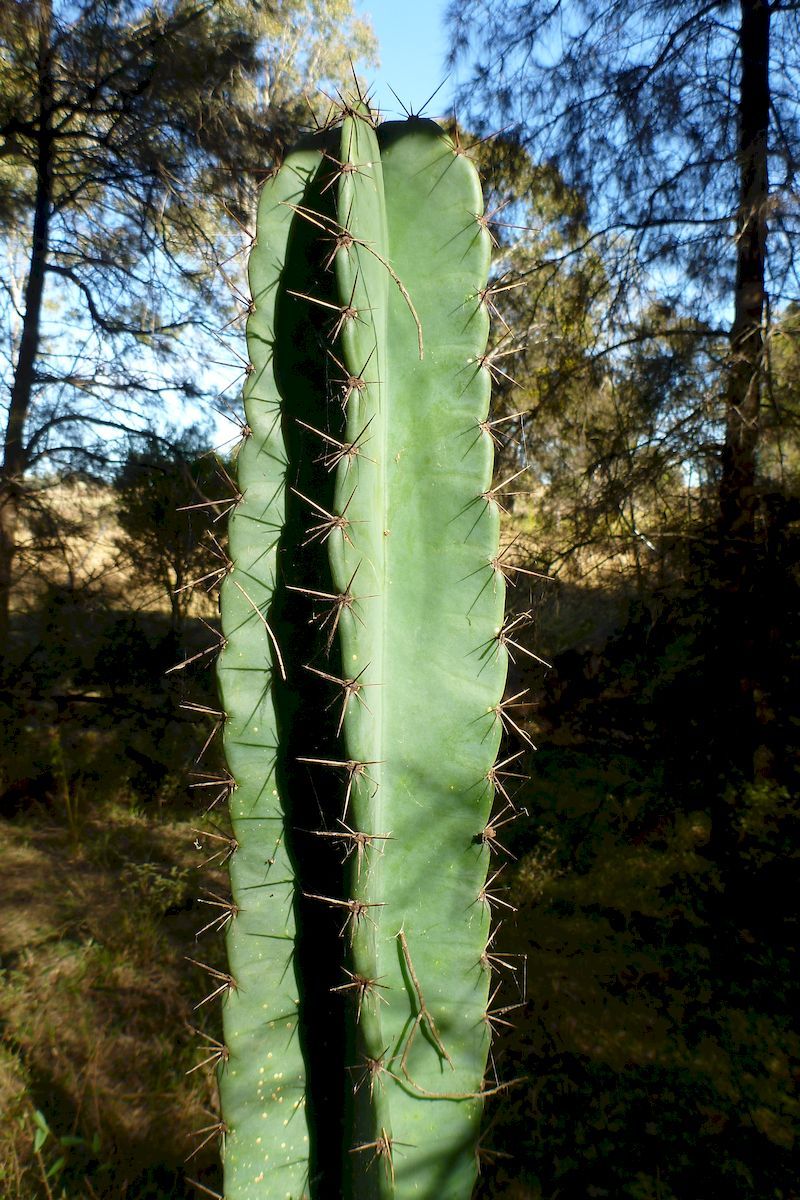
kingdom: Plantae
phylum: Tracheophyta
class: Magnoliopsida
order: Caryophyllales
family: Cactaceae
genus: Cereus
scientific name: Cereus hildmannianus
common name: Hedge cactus
